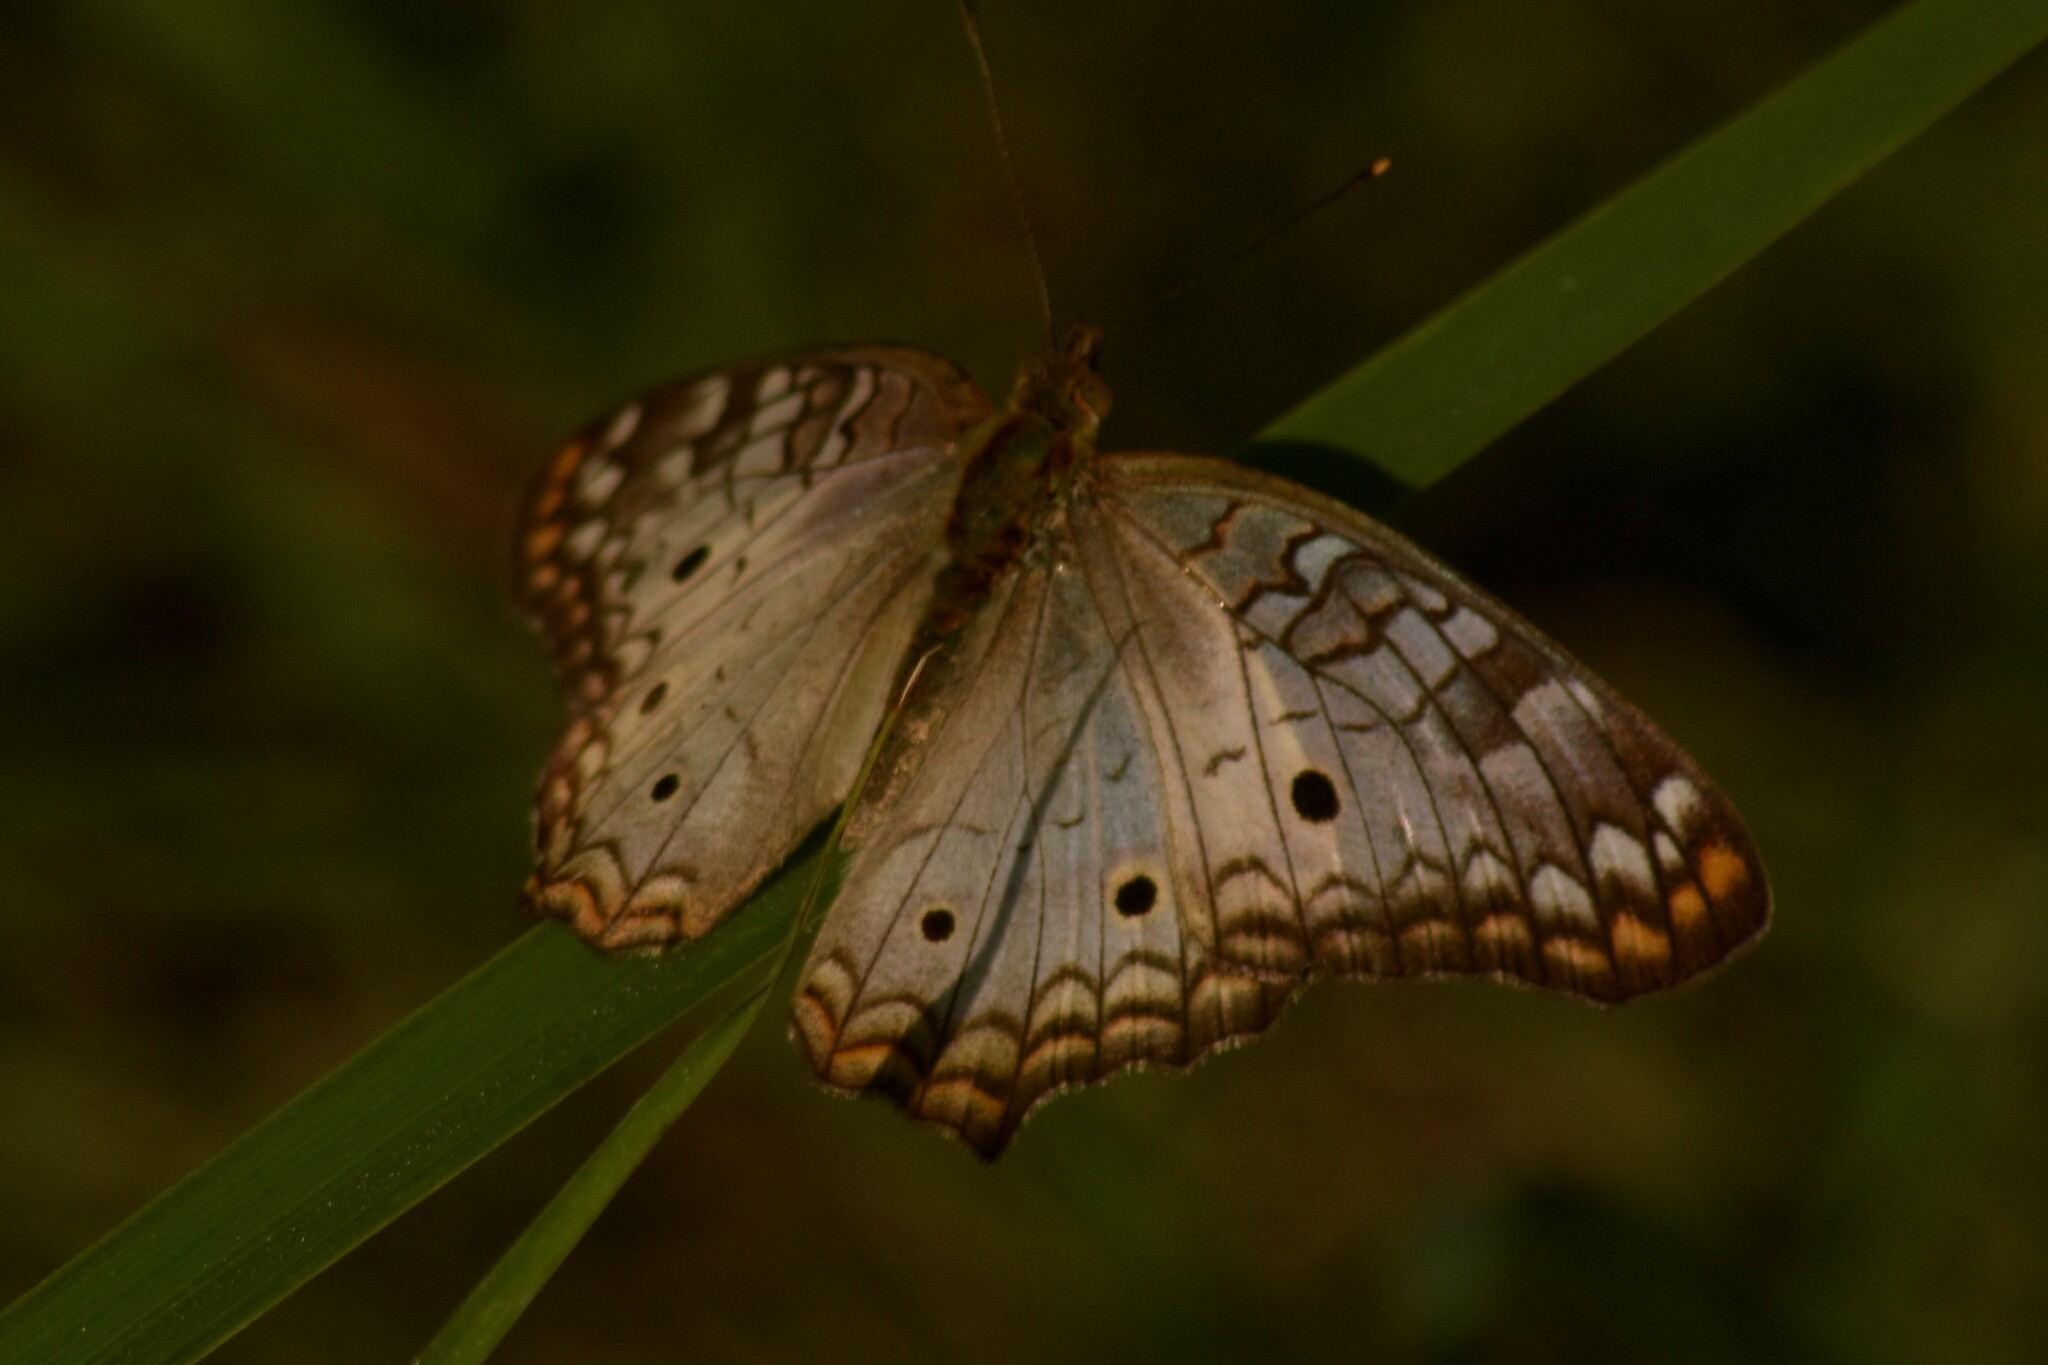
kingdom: Animalia
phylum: Arthropoda
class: Insecta
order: Lepidoptera
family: Nymphalidae
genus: Anartia
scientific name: Anartia jatrophae
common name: White peacock
